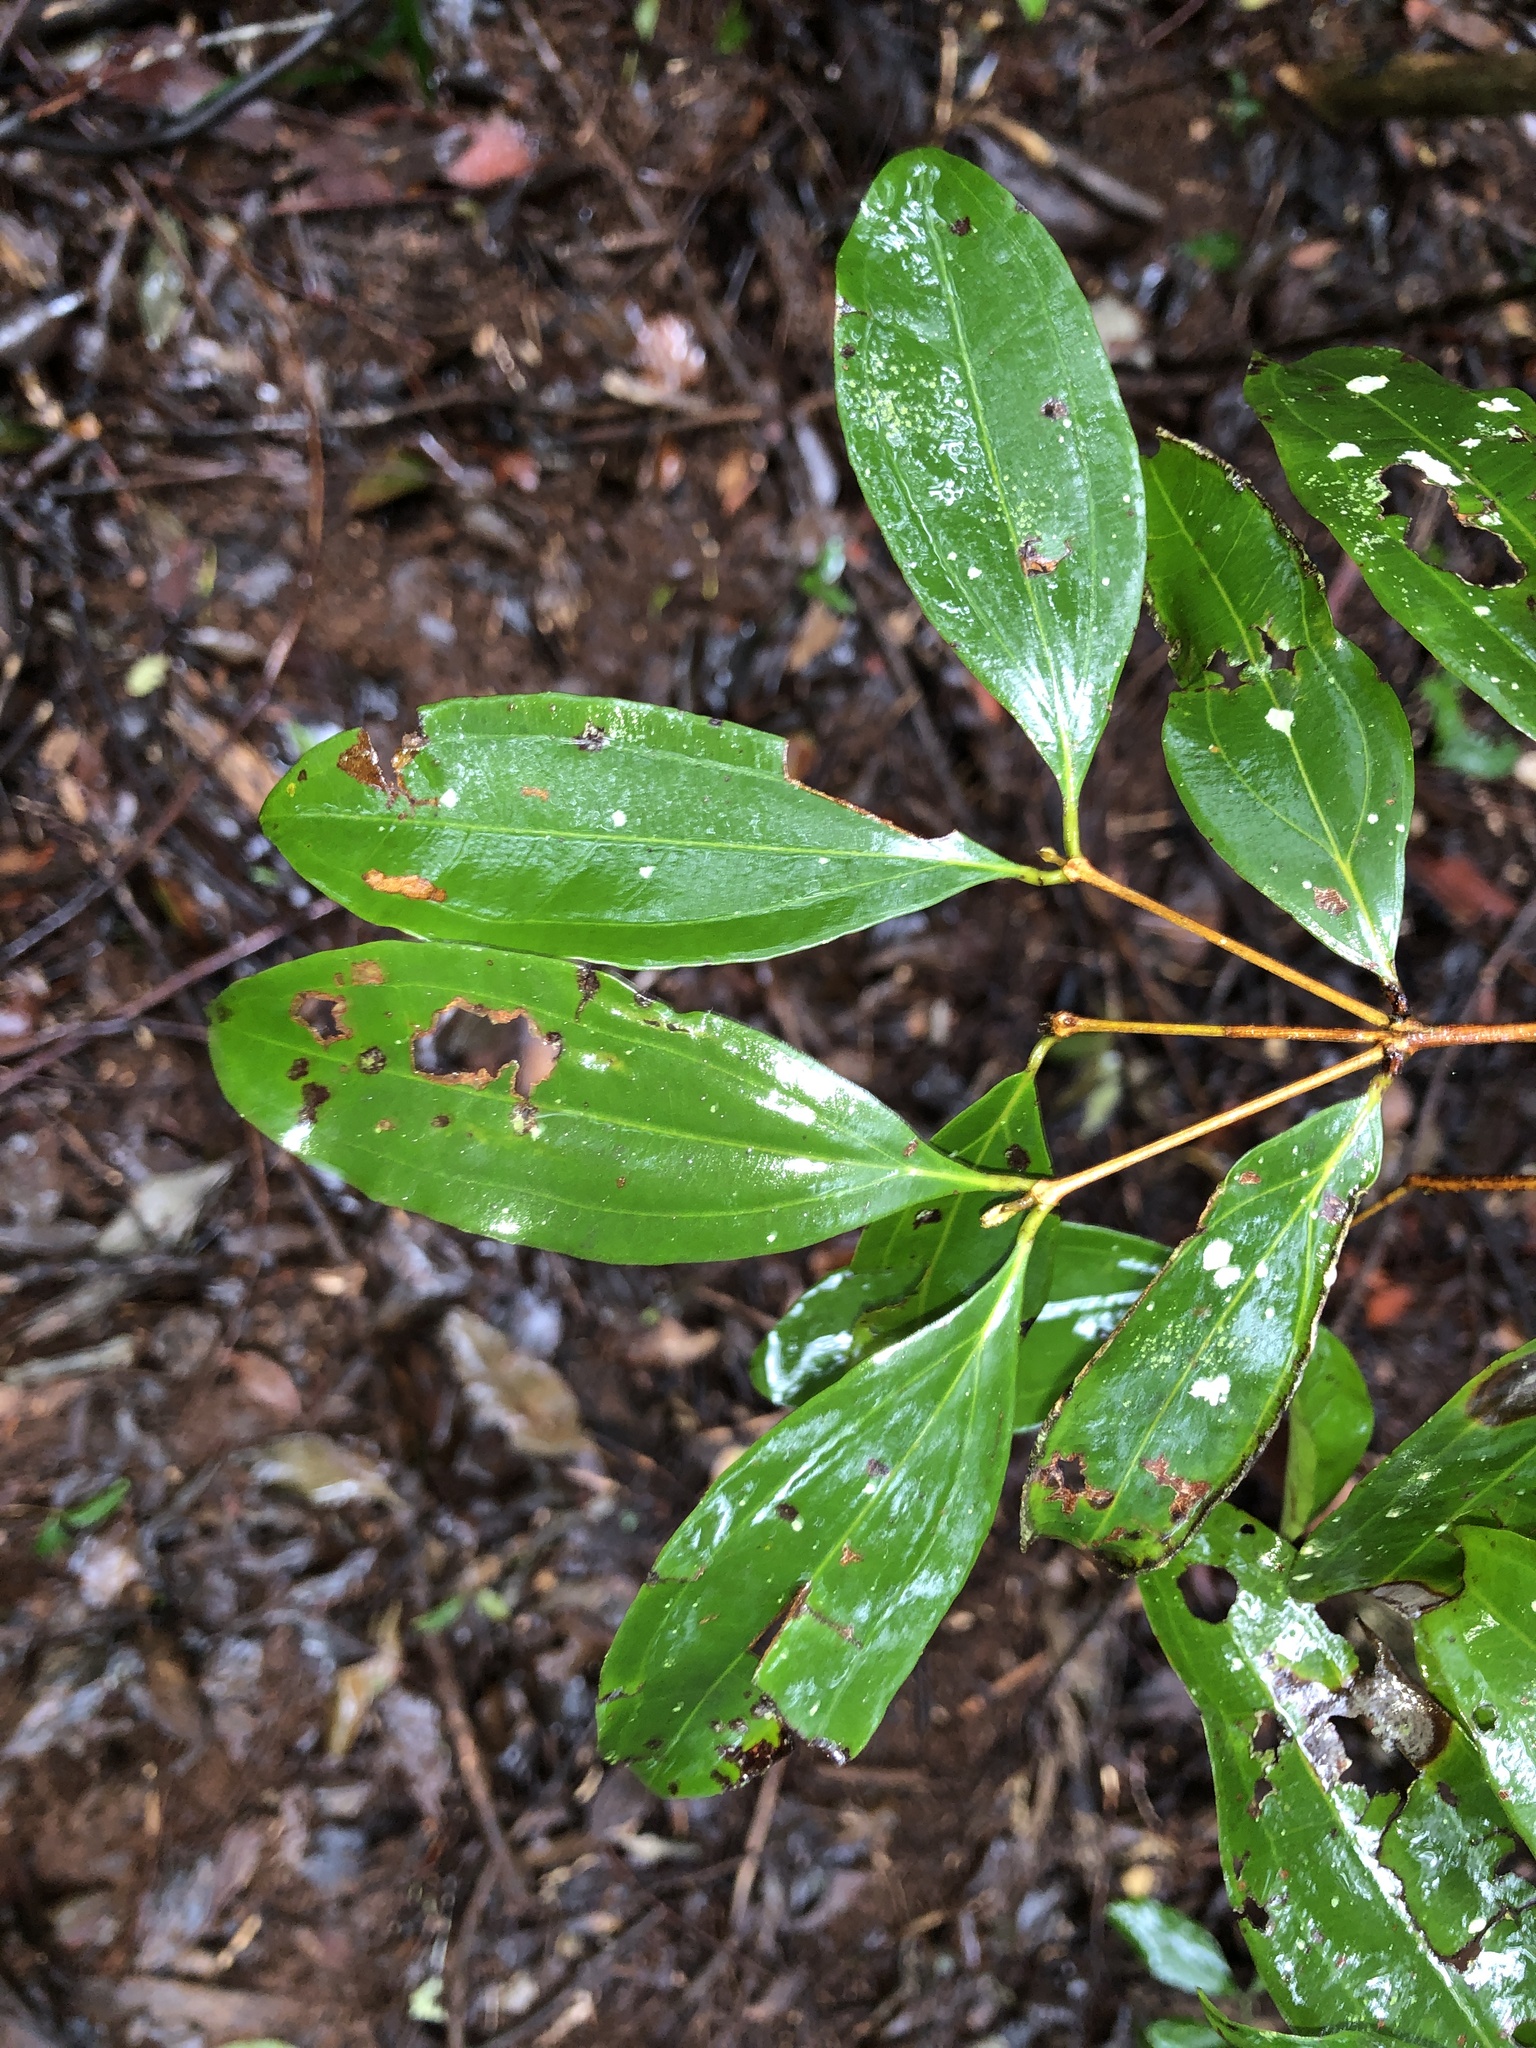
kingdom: Plantae
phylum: Tracheophyta
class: Magnoliopsida
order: Myrtales
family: Myrtaceae
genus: Rhodamnia
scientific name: Rhodamnia argentea
